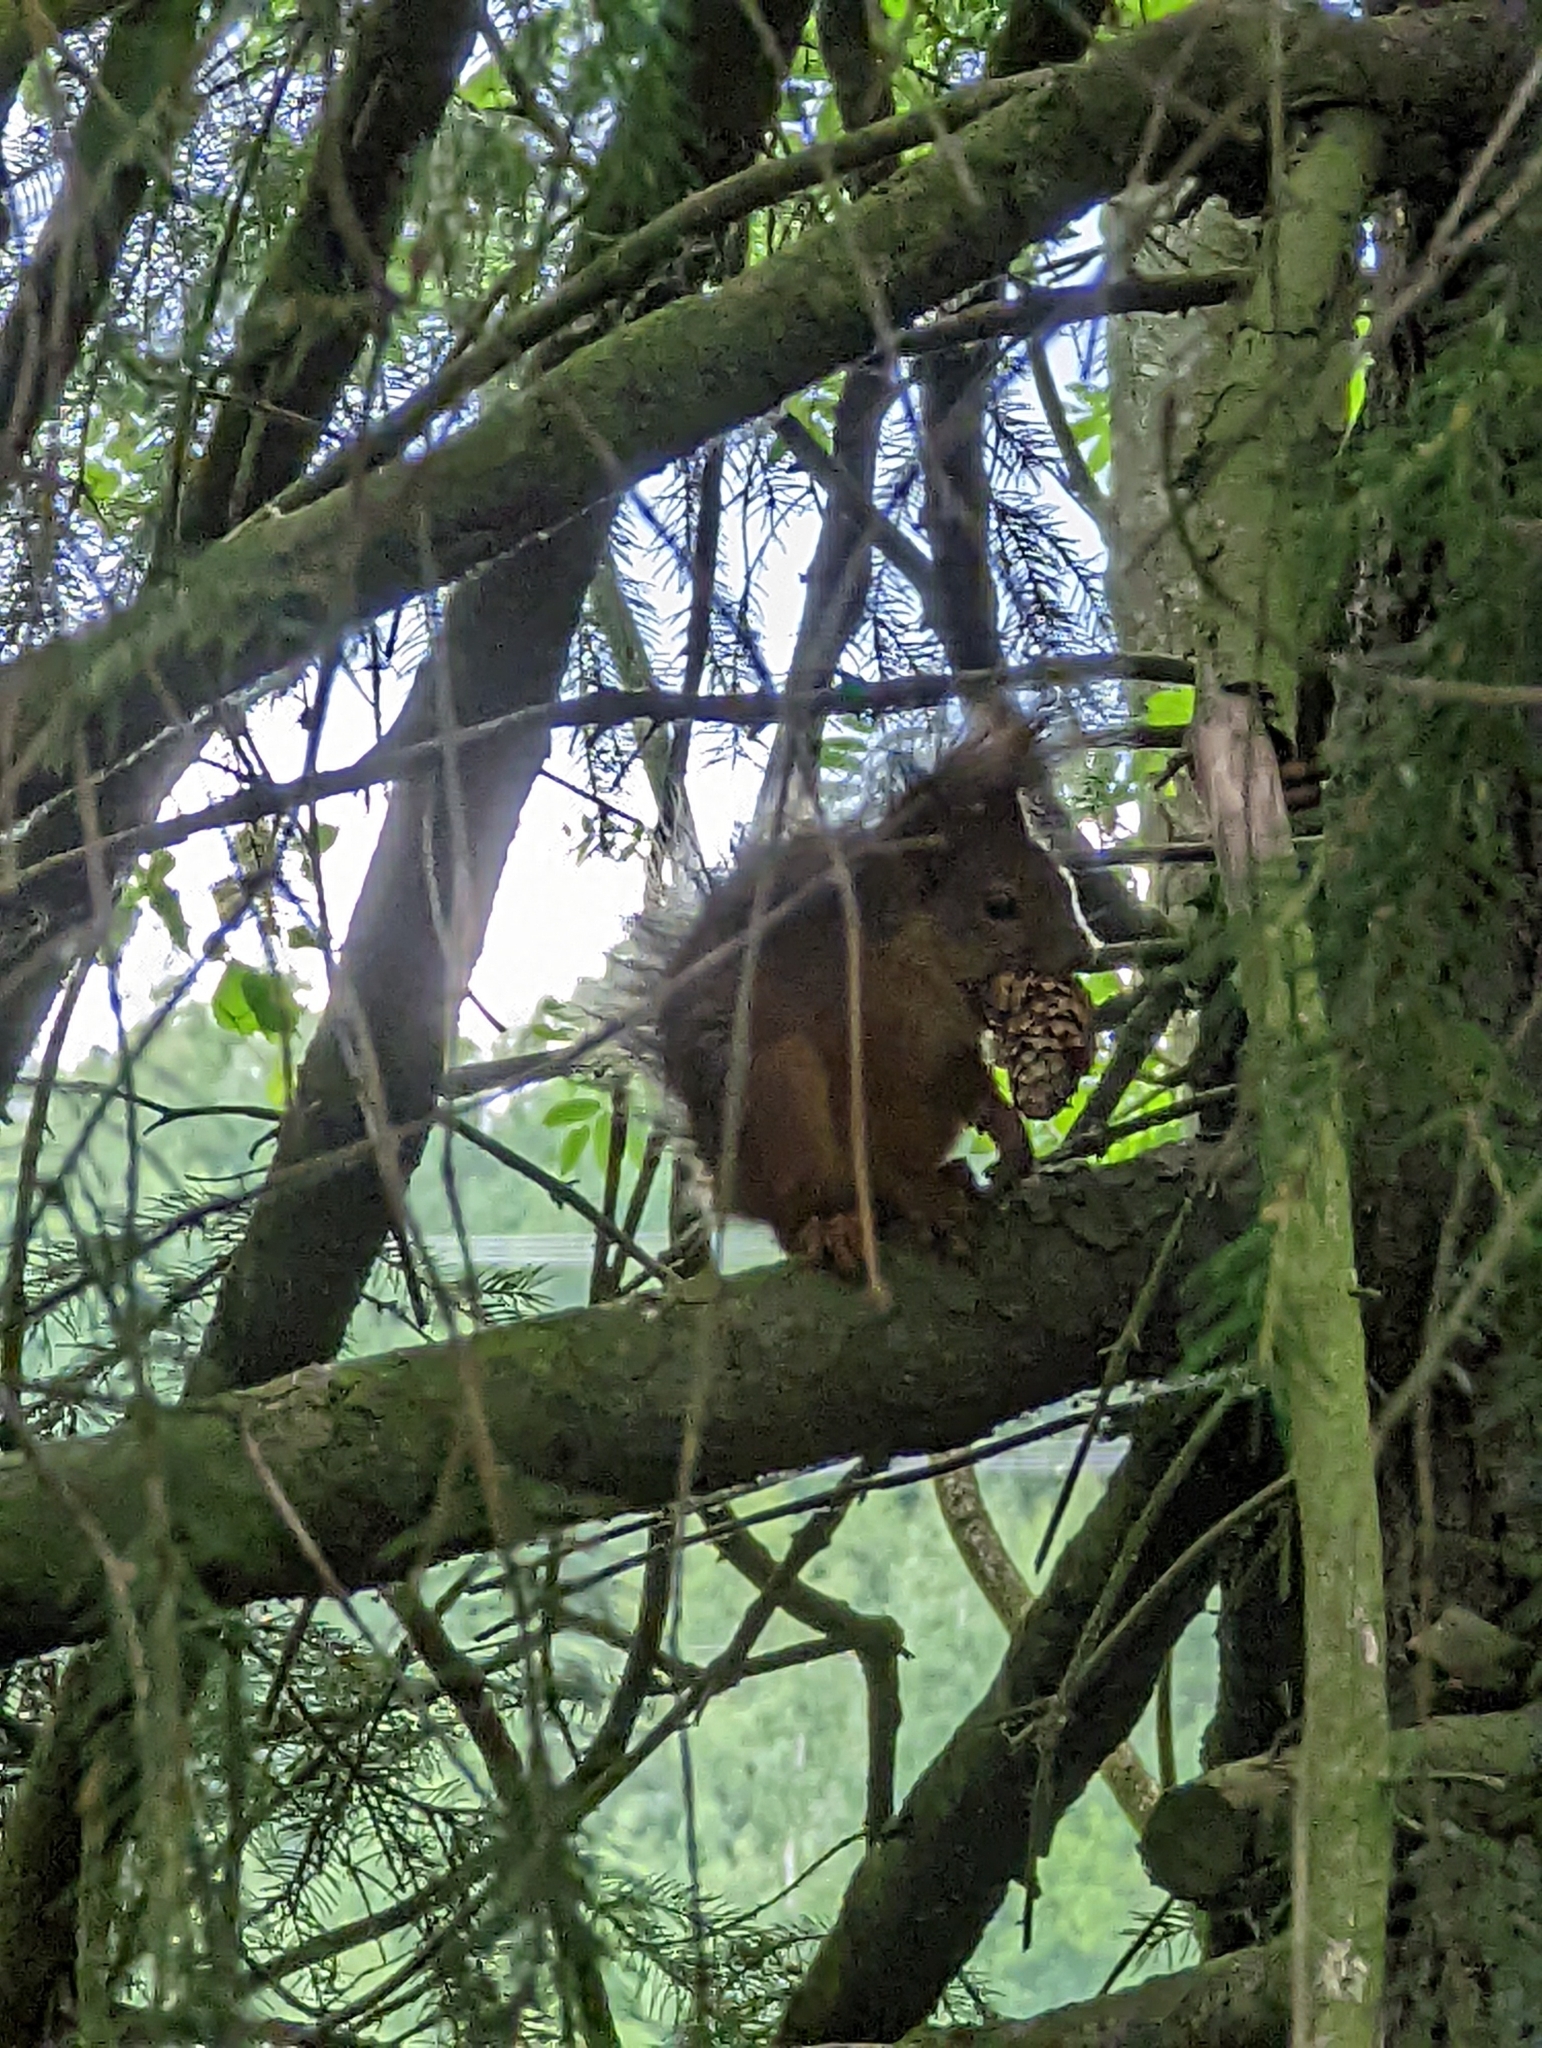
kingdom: Animalia
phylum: Chordata
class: Mammalia
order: Rodentia
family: Sciuridae
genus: Sciurus
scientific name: Sciurus vulgaris
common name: Eurasian red squirrel
